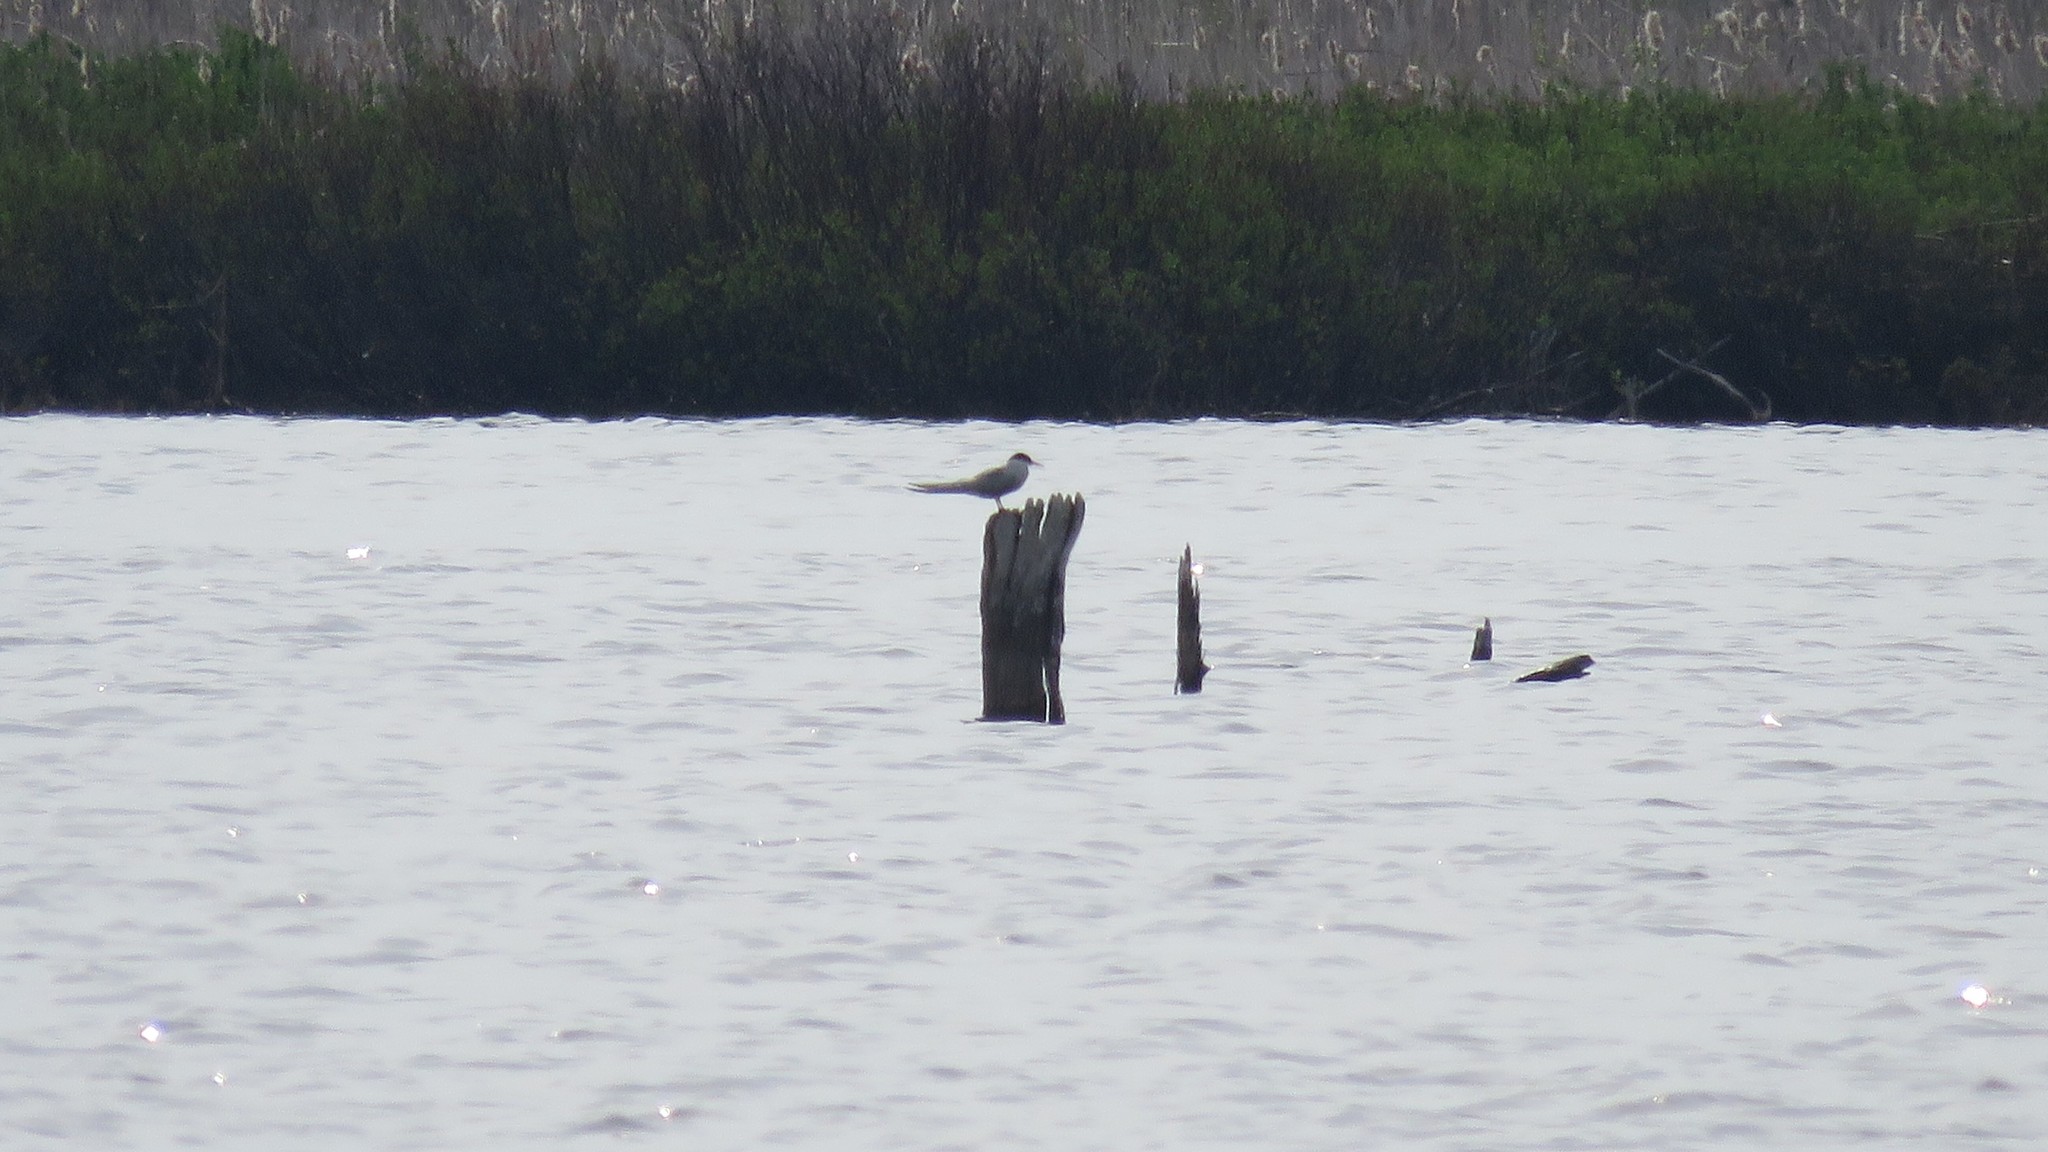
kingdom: Animalia
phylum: Chordata
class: Aves
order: Charadriiformes
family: Laridae
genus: Sterna
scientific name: Sterna hirundo
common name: Common tern
